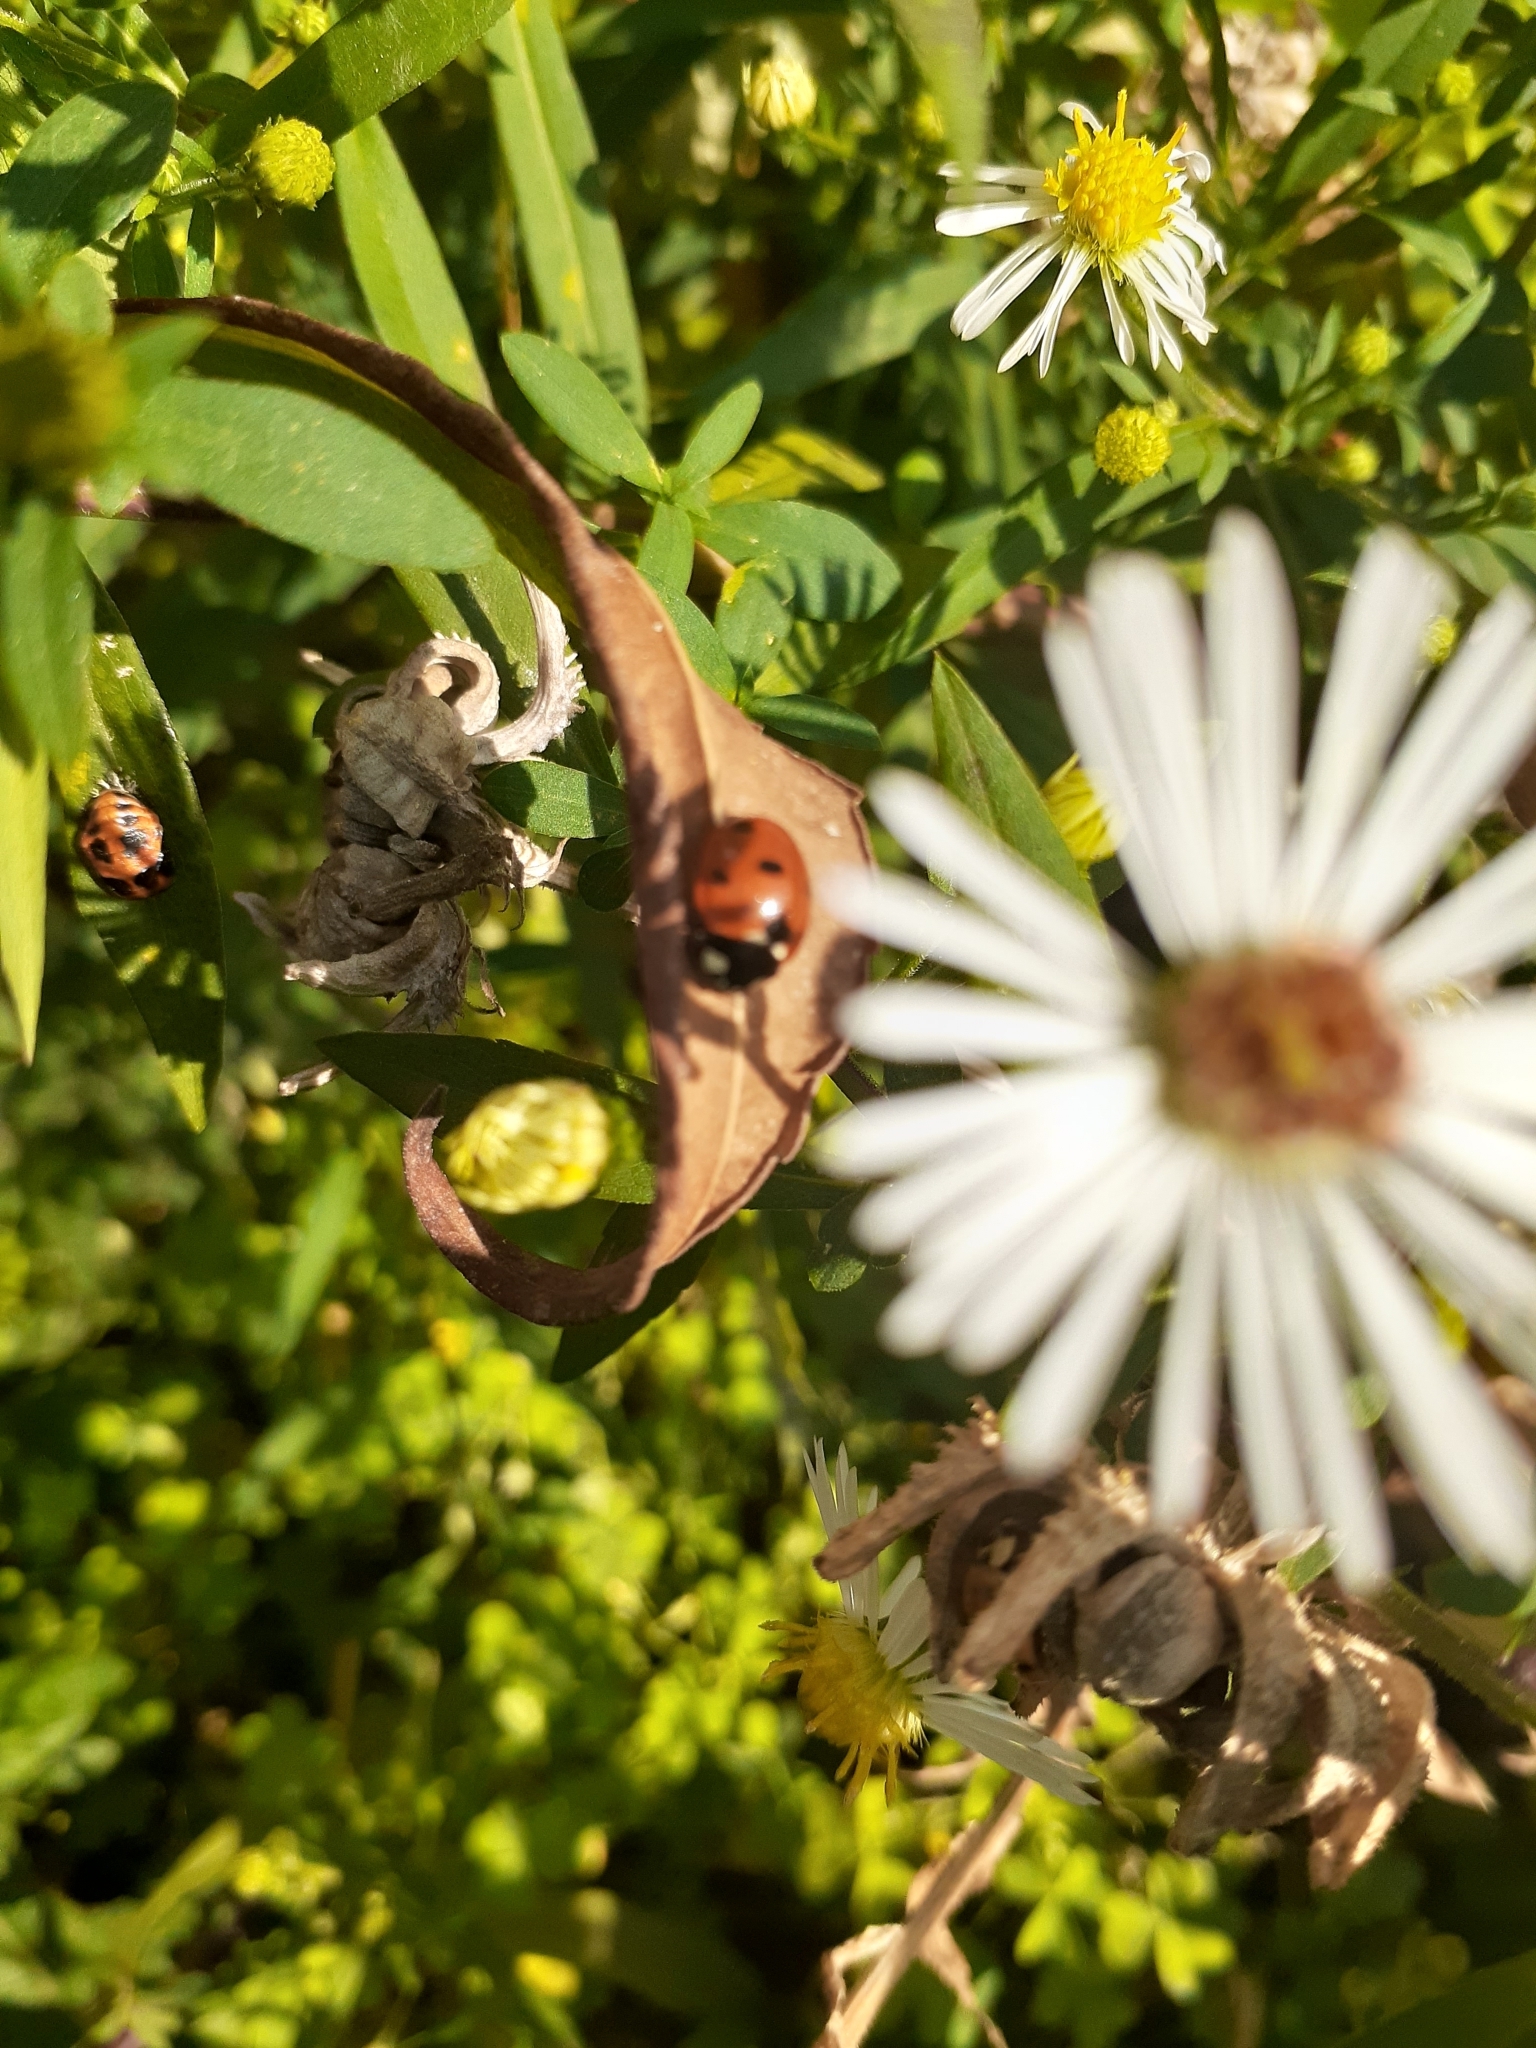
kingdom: Animalia
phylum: Arthropoda
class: Insecta
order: Coleoptera
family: Coccinellidae
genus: Coccinella
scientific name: Coccinella septempunctata
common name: Sevenspotted lady beetle
